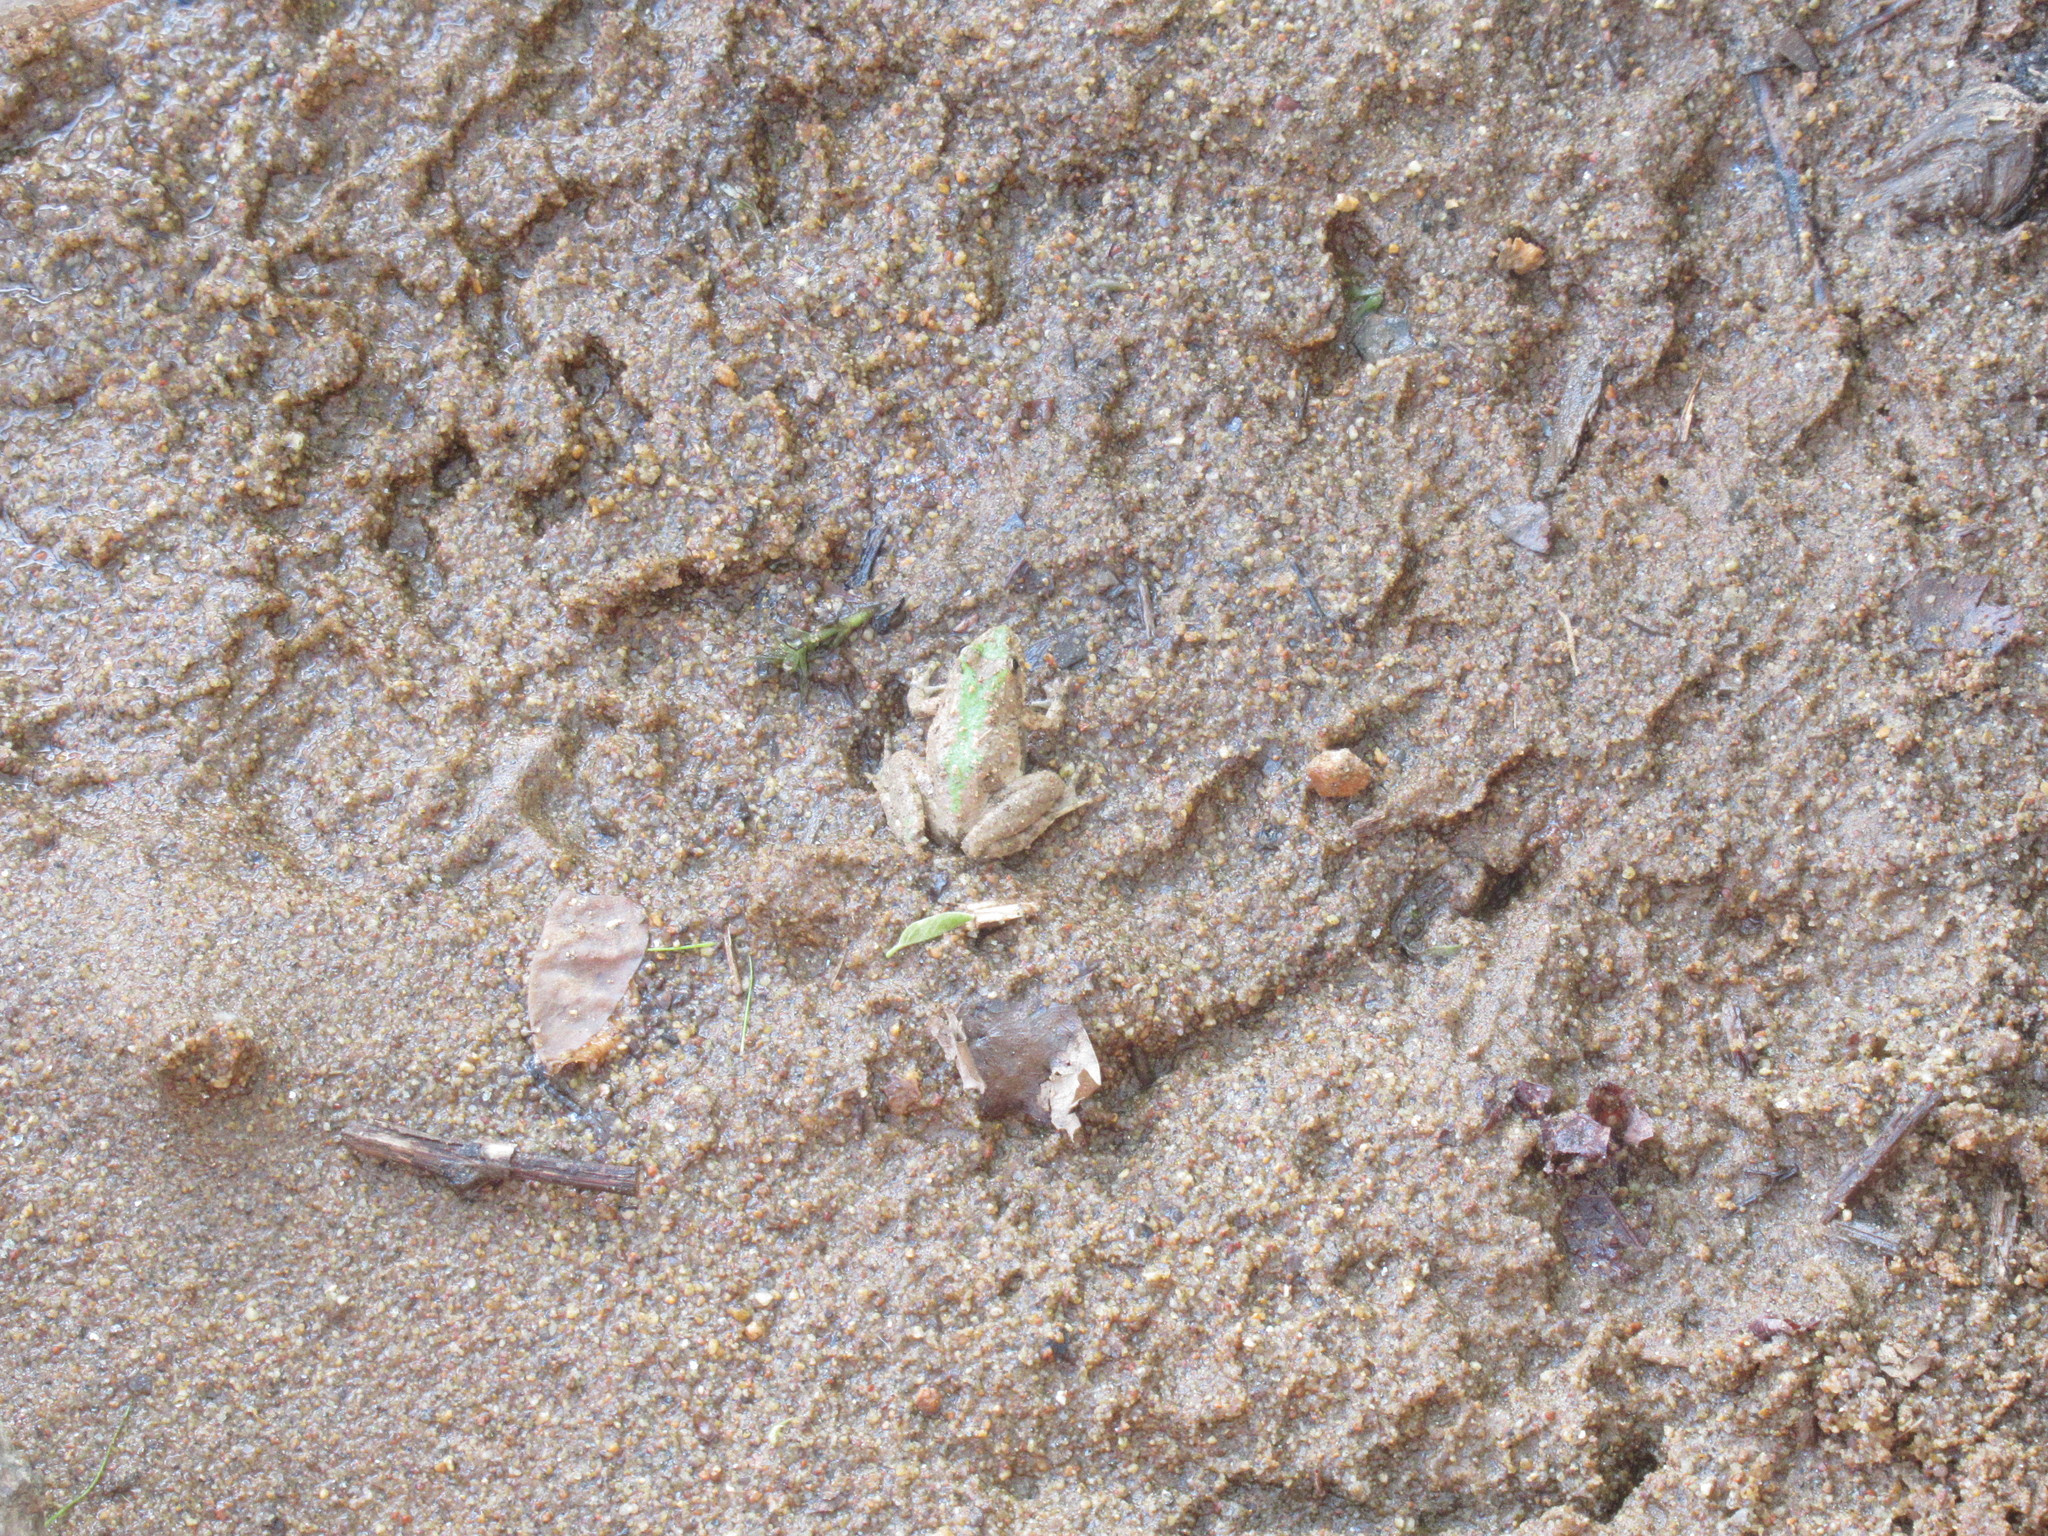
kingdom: Animalia
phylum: Chordata
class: Amphibia
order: Anura
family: Hylidae
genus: Acris
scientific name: Acris crepitans
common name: Northern cricket frog
